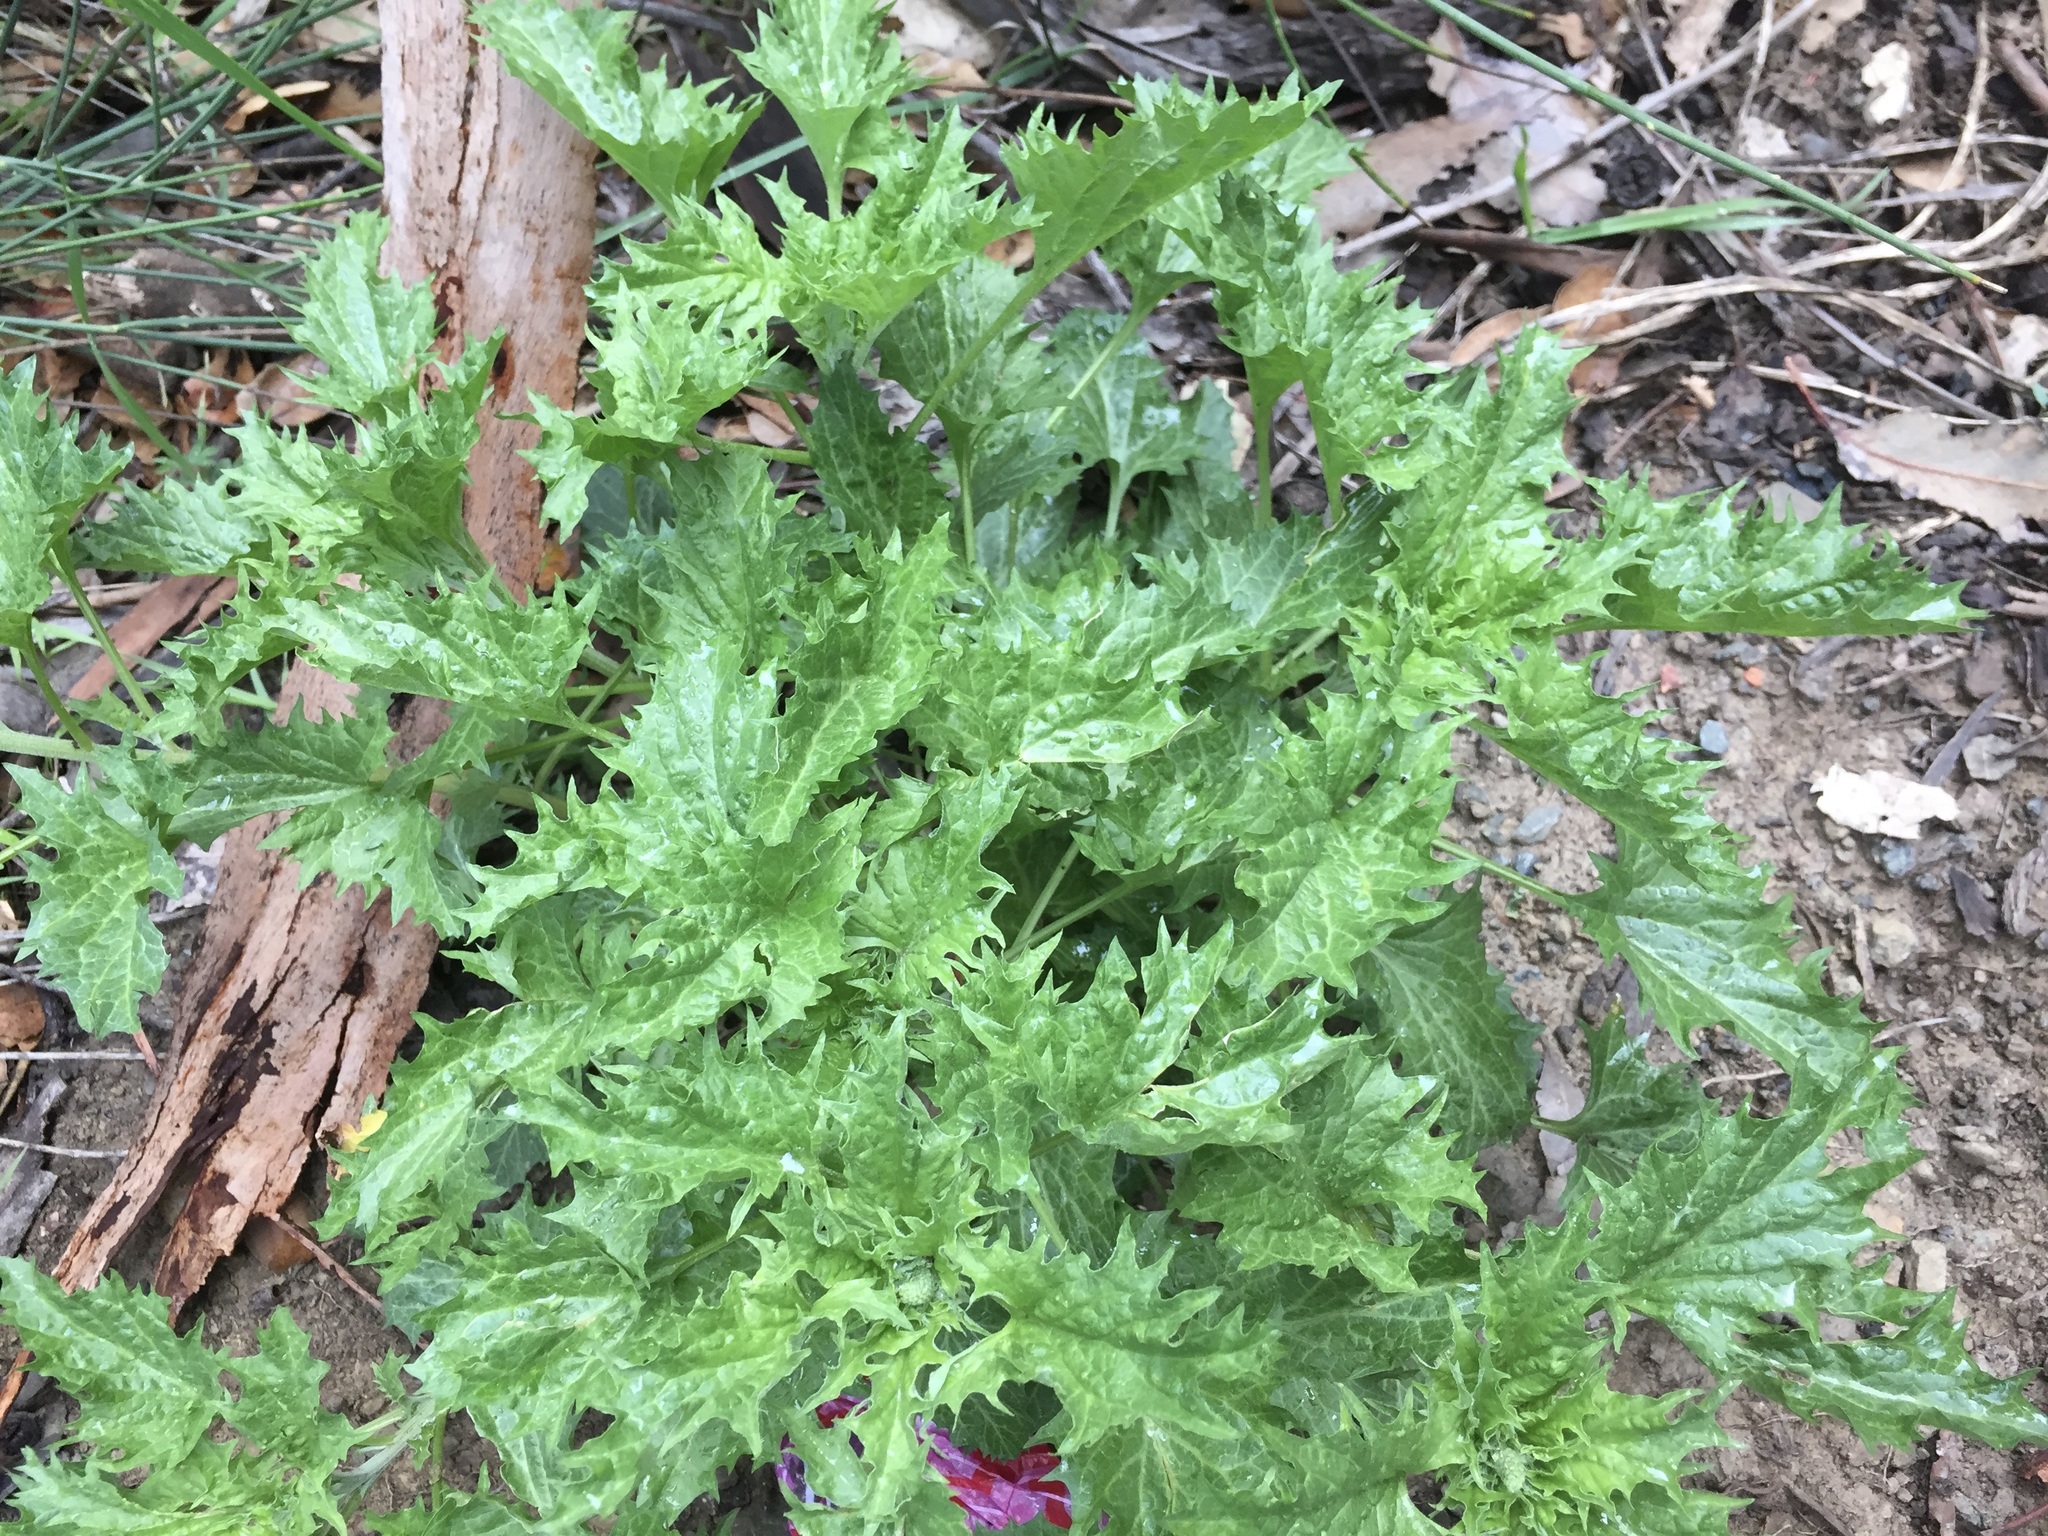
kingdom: Plantae
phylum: Tracheophyta
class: Magnoliopsida
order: Caryophyllales
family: Amaranthaceae
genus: Blitum
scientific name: Blitum californicum
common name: California goosefoot
